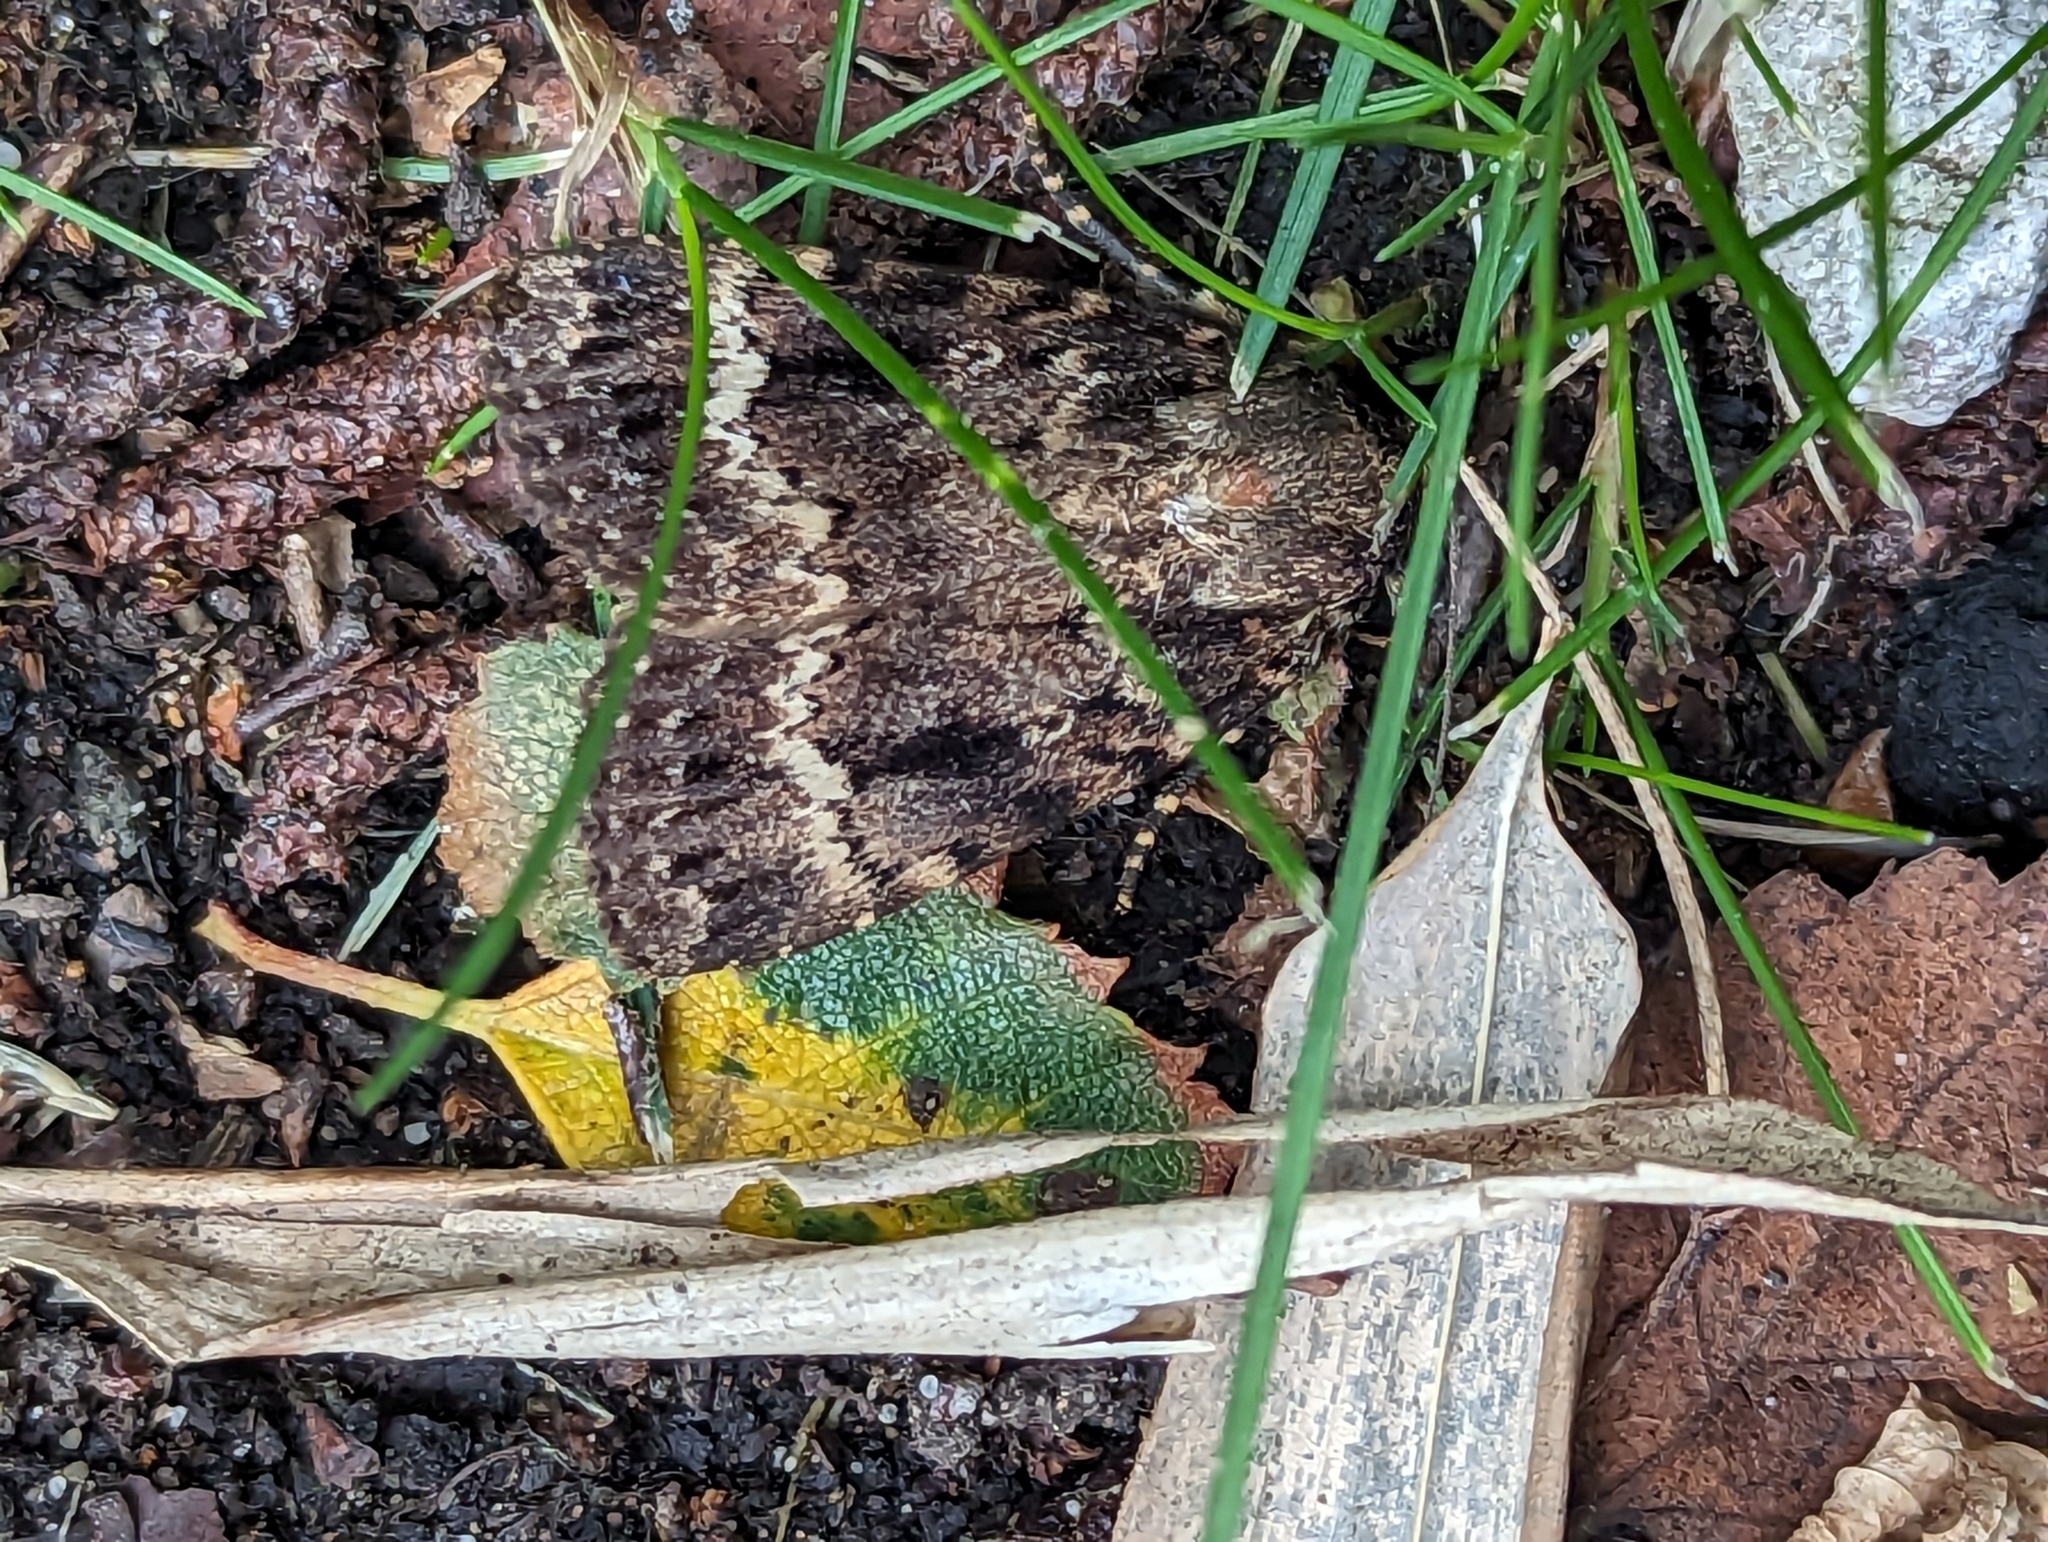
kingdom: Animalia
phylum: Arthropoda
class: Insecta
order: Lepidoptera
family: Noctuidae
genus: Amphipyra
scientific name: Amphipyra pyramidea
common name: Copper underwing
